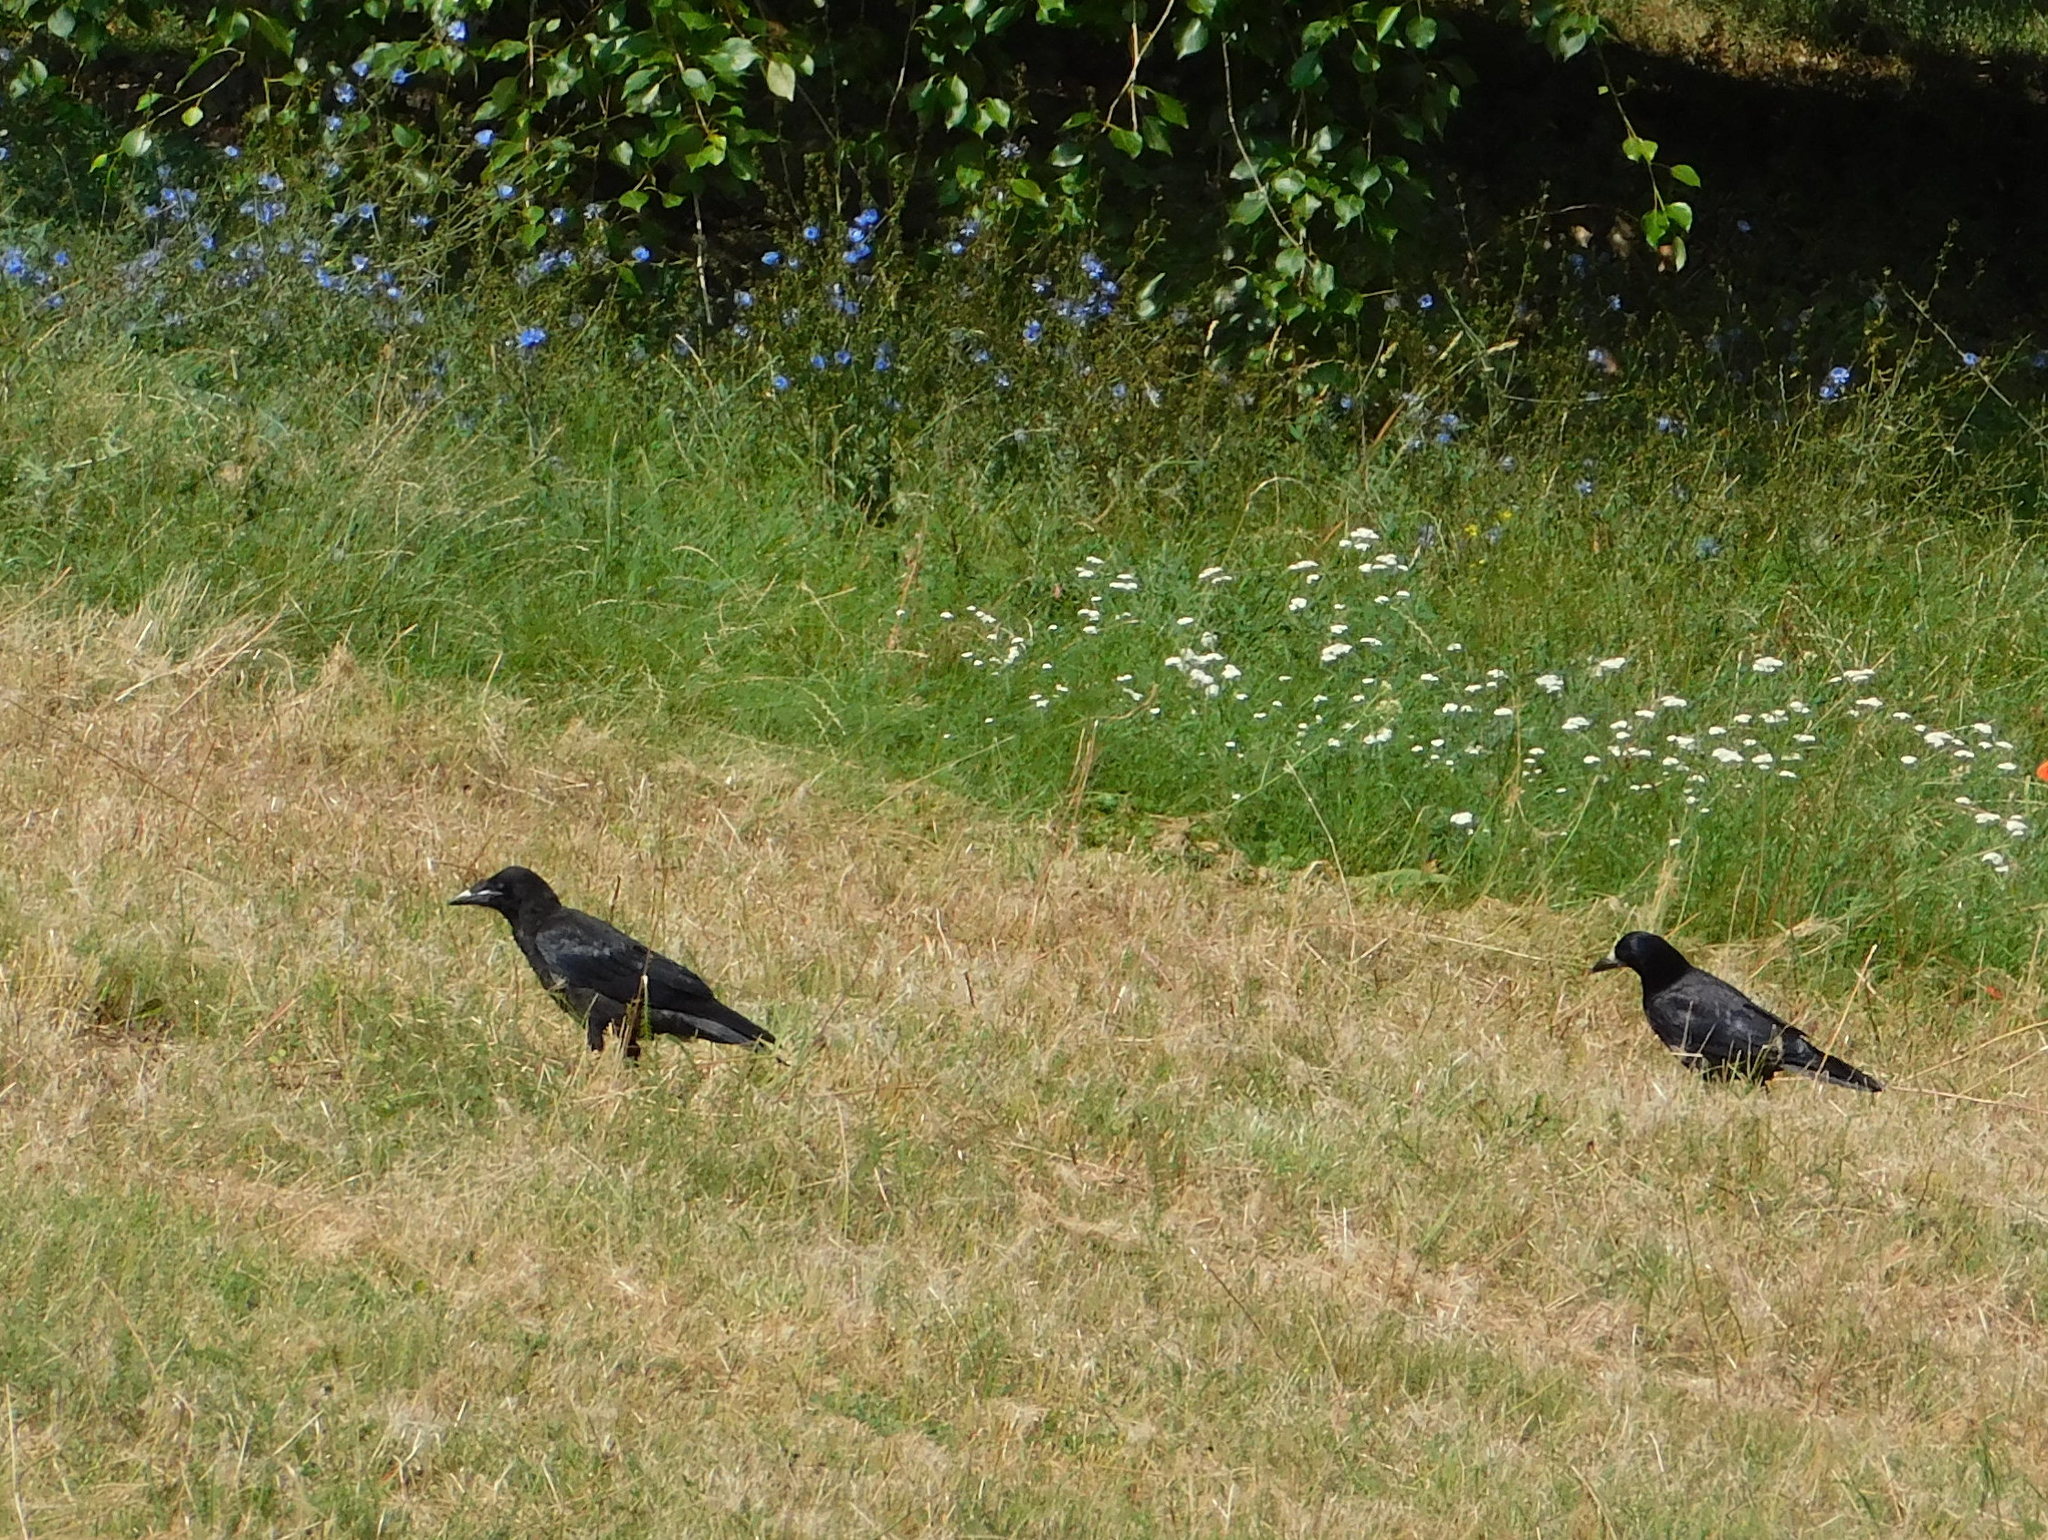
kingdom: Animalia
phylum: Chordata
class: Aves
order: Passeriformes
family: Corvidae
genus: Corvus
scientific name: Corvus frugilegus
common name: Rook
